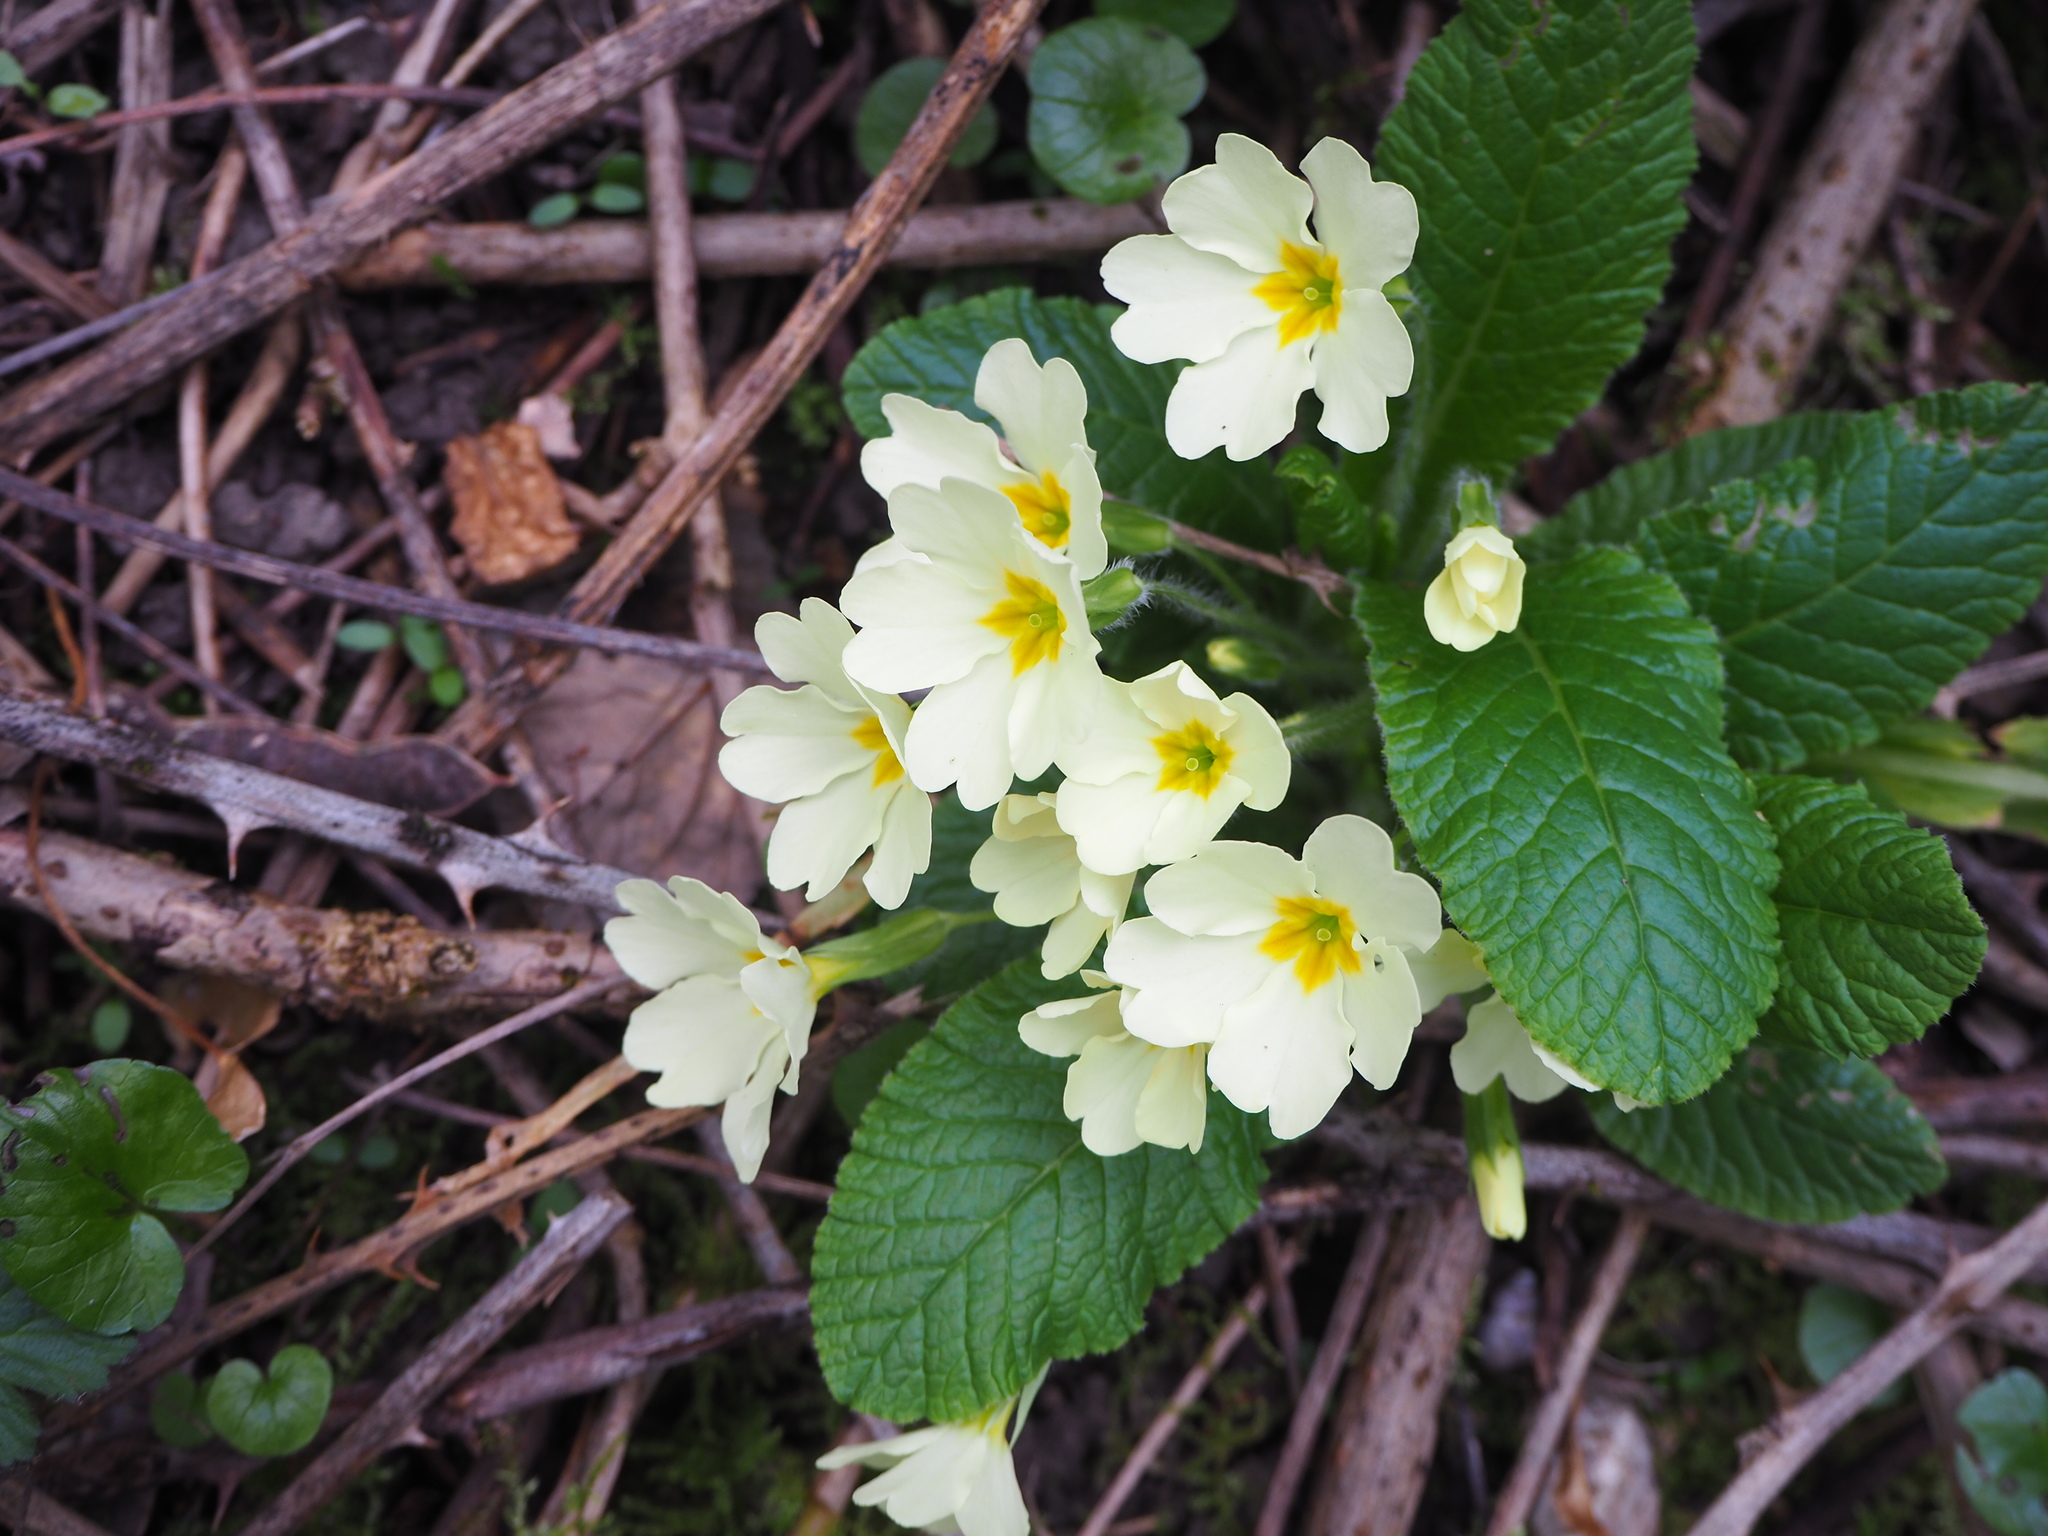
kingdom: Plantae
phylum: Tracheophyta
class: Magnoliopsida
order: Ericales
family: Primulaceae
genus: Primula
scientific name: Primula vulgaris
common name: Primrose
